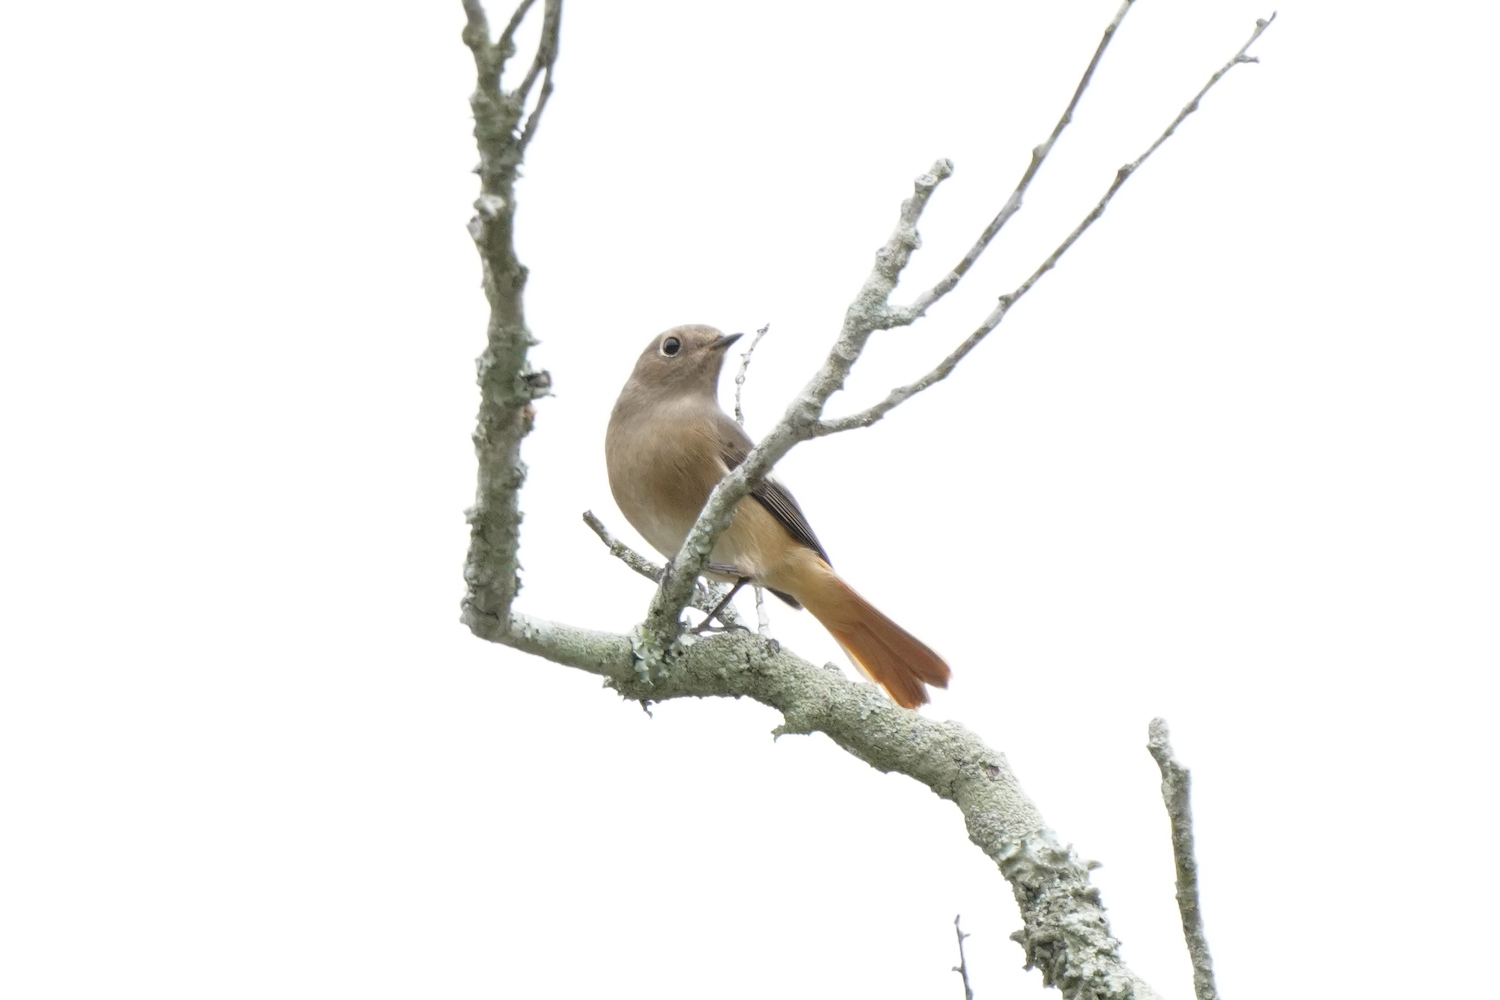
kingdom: Animalia
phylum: Chordata
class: Aves
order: Passeriformes
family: Muscicapidae
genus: Phoenicurus
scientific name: Phoenicurus auroreus
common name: Daurian redstart
